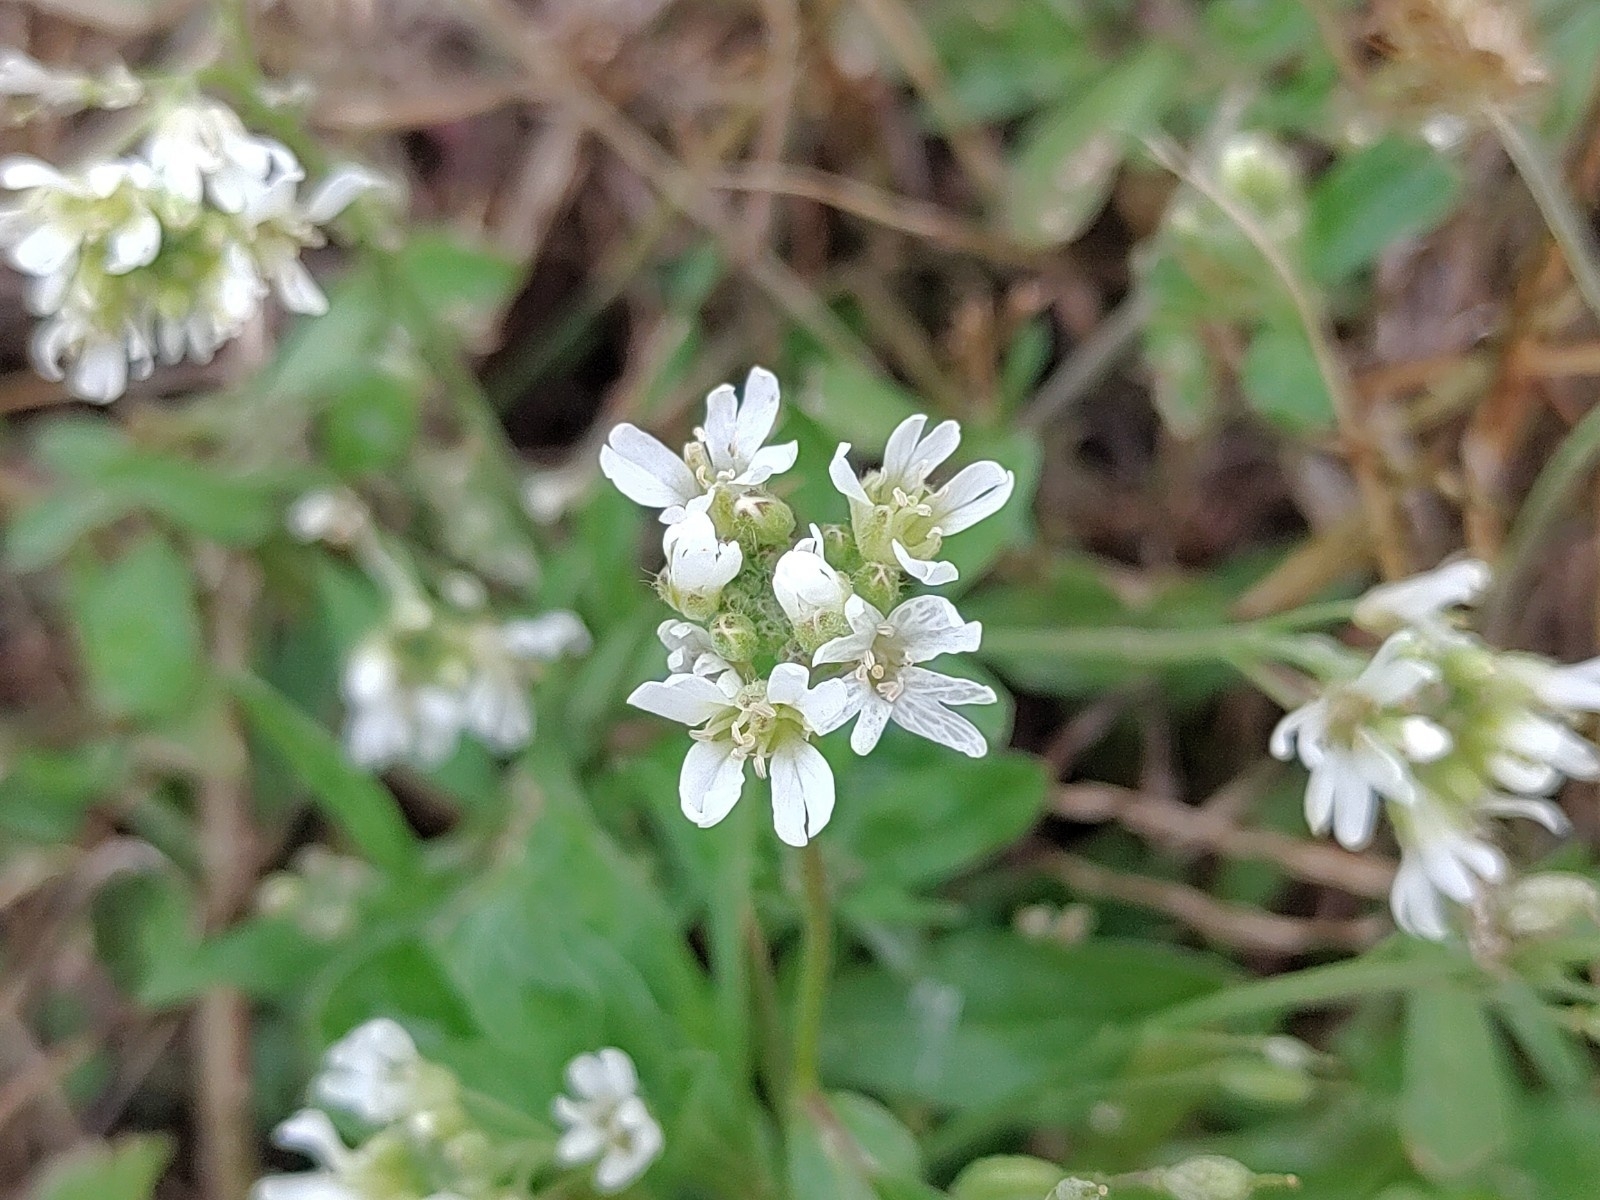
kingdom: Plantae
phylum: Tracheophyta
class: Magnoliopsida
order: Brassicales
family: Brassicaceae
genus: Berteroa
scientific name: Berteroa incana
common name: Hoary alison
